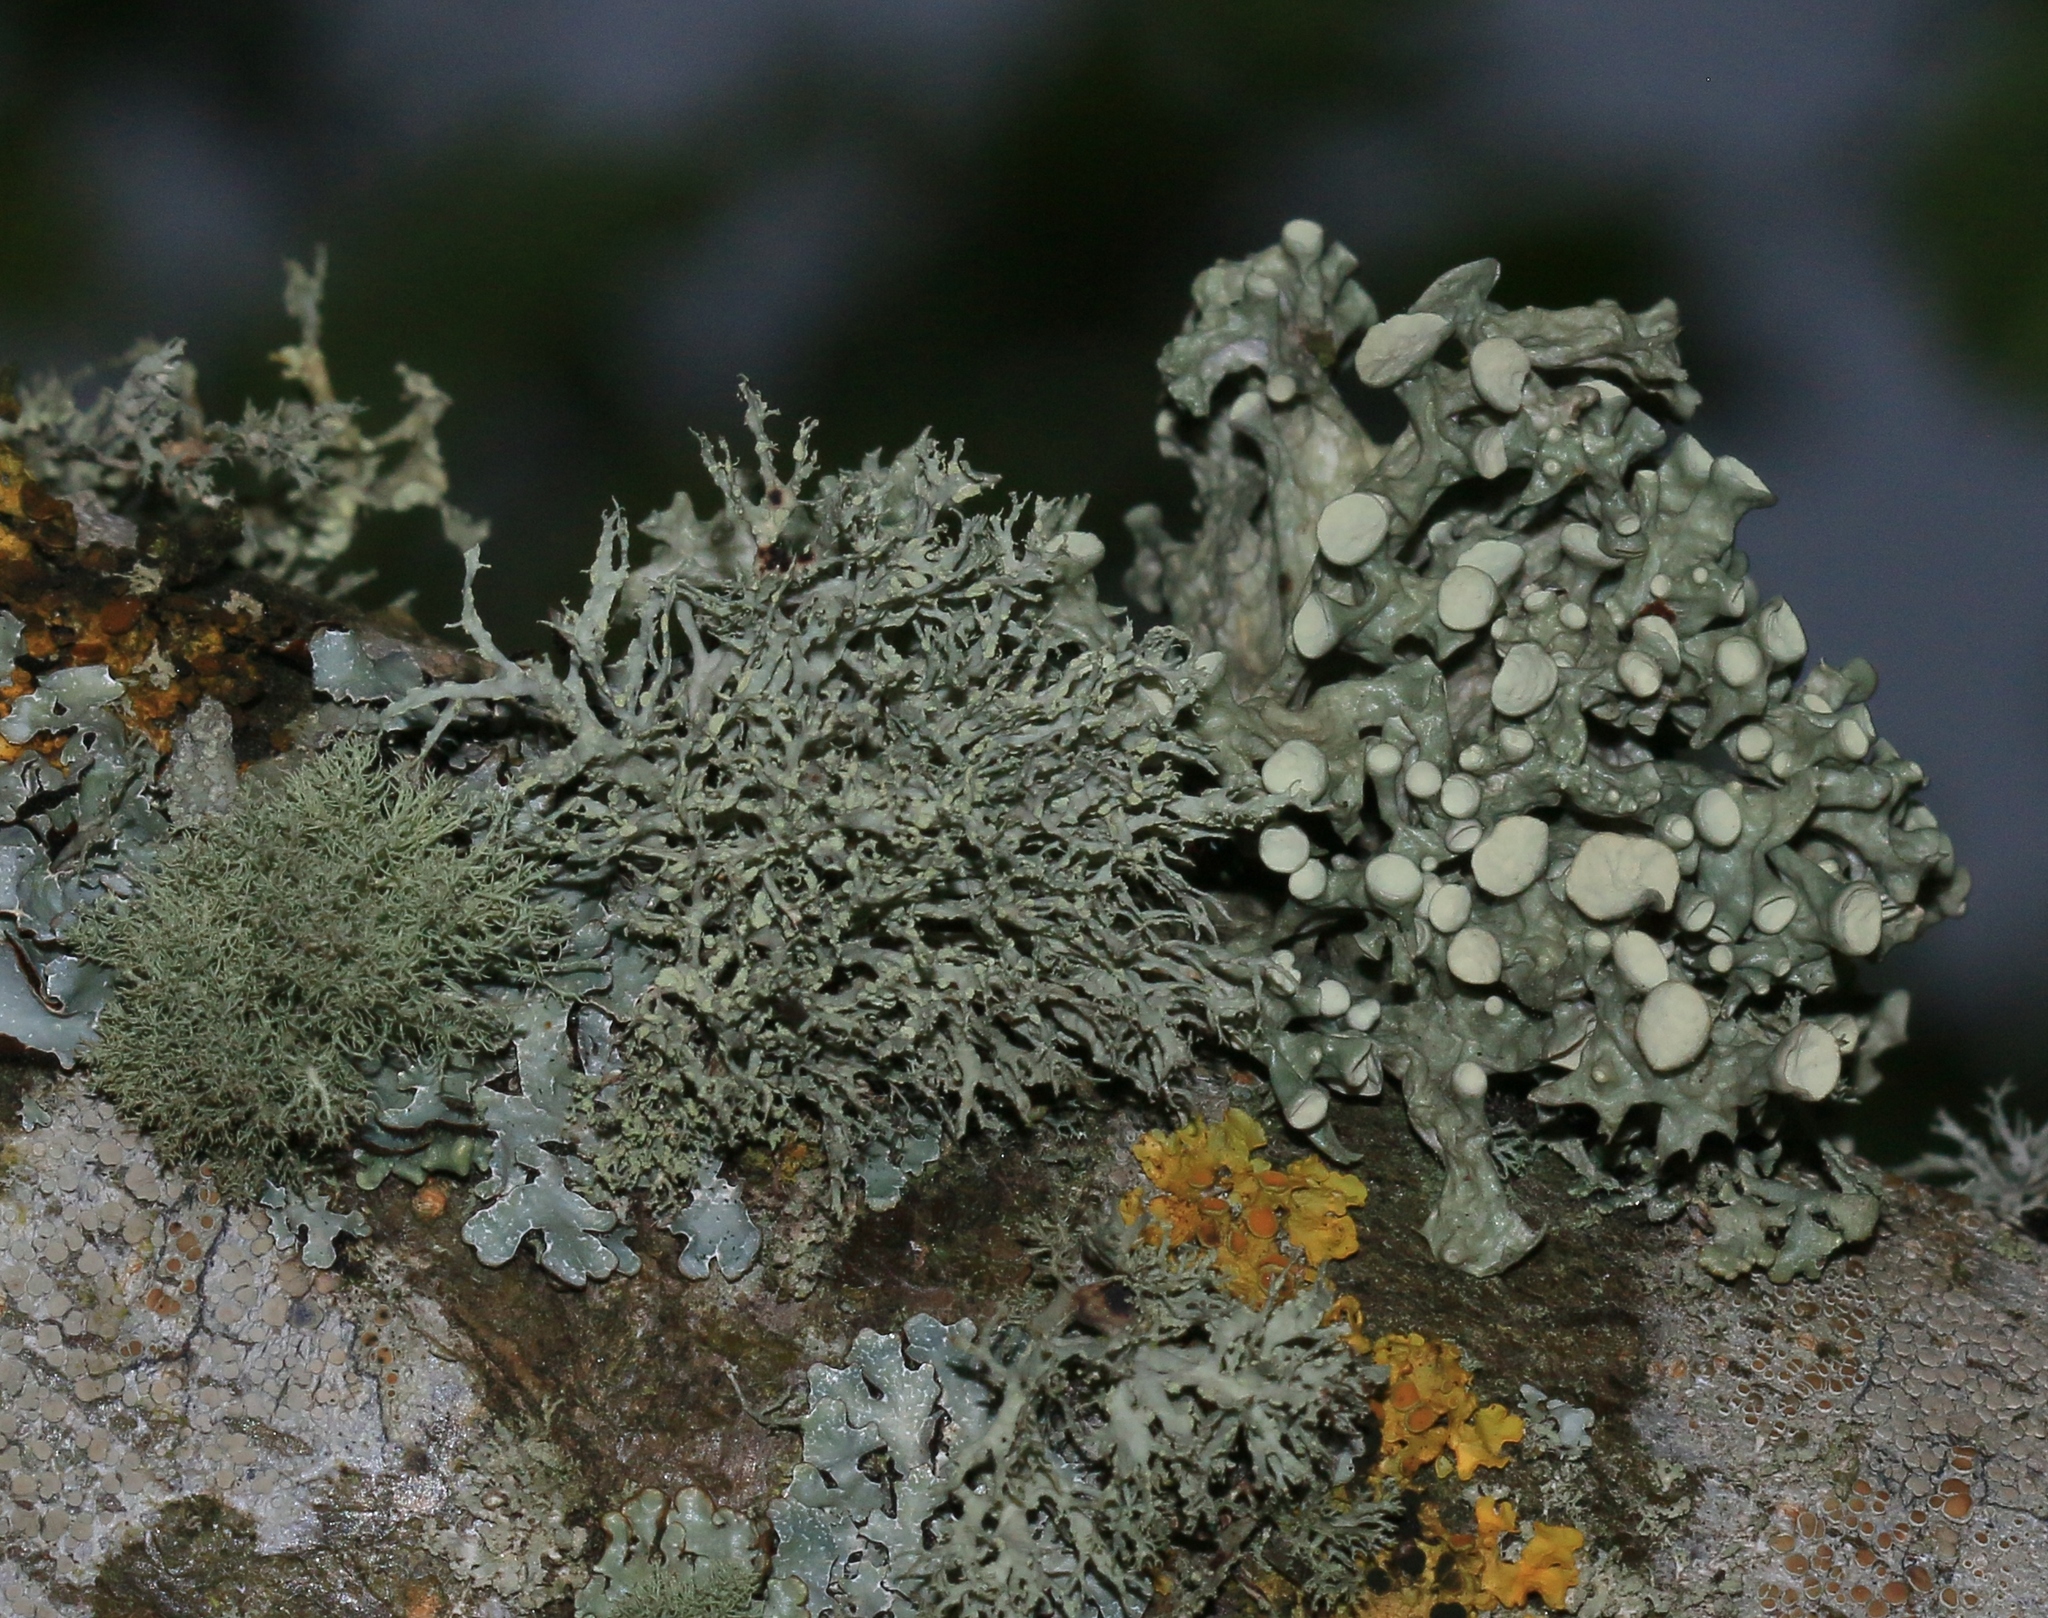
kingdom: Fungi
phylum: Ascomycota
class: Lecanoromycetes
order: Lecanorales
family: Ramalinaceae
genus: Ramalina
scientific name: Ramalina farinacea
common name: Farinose cartilage lichen
